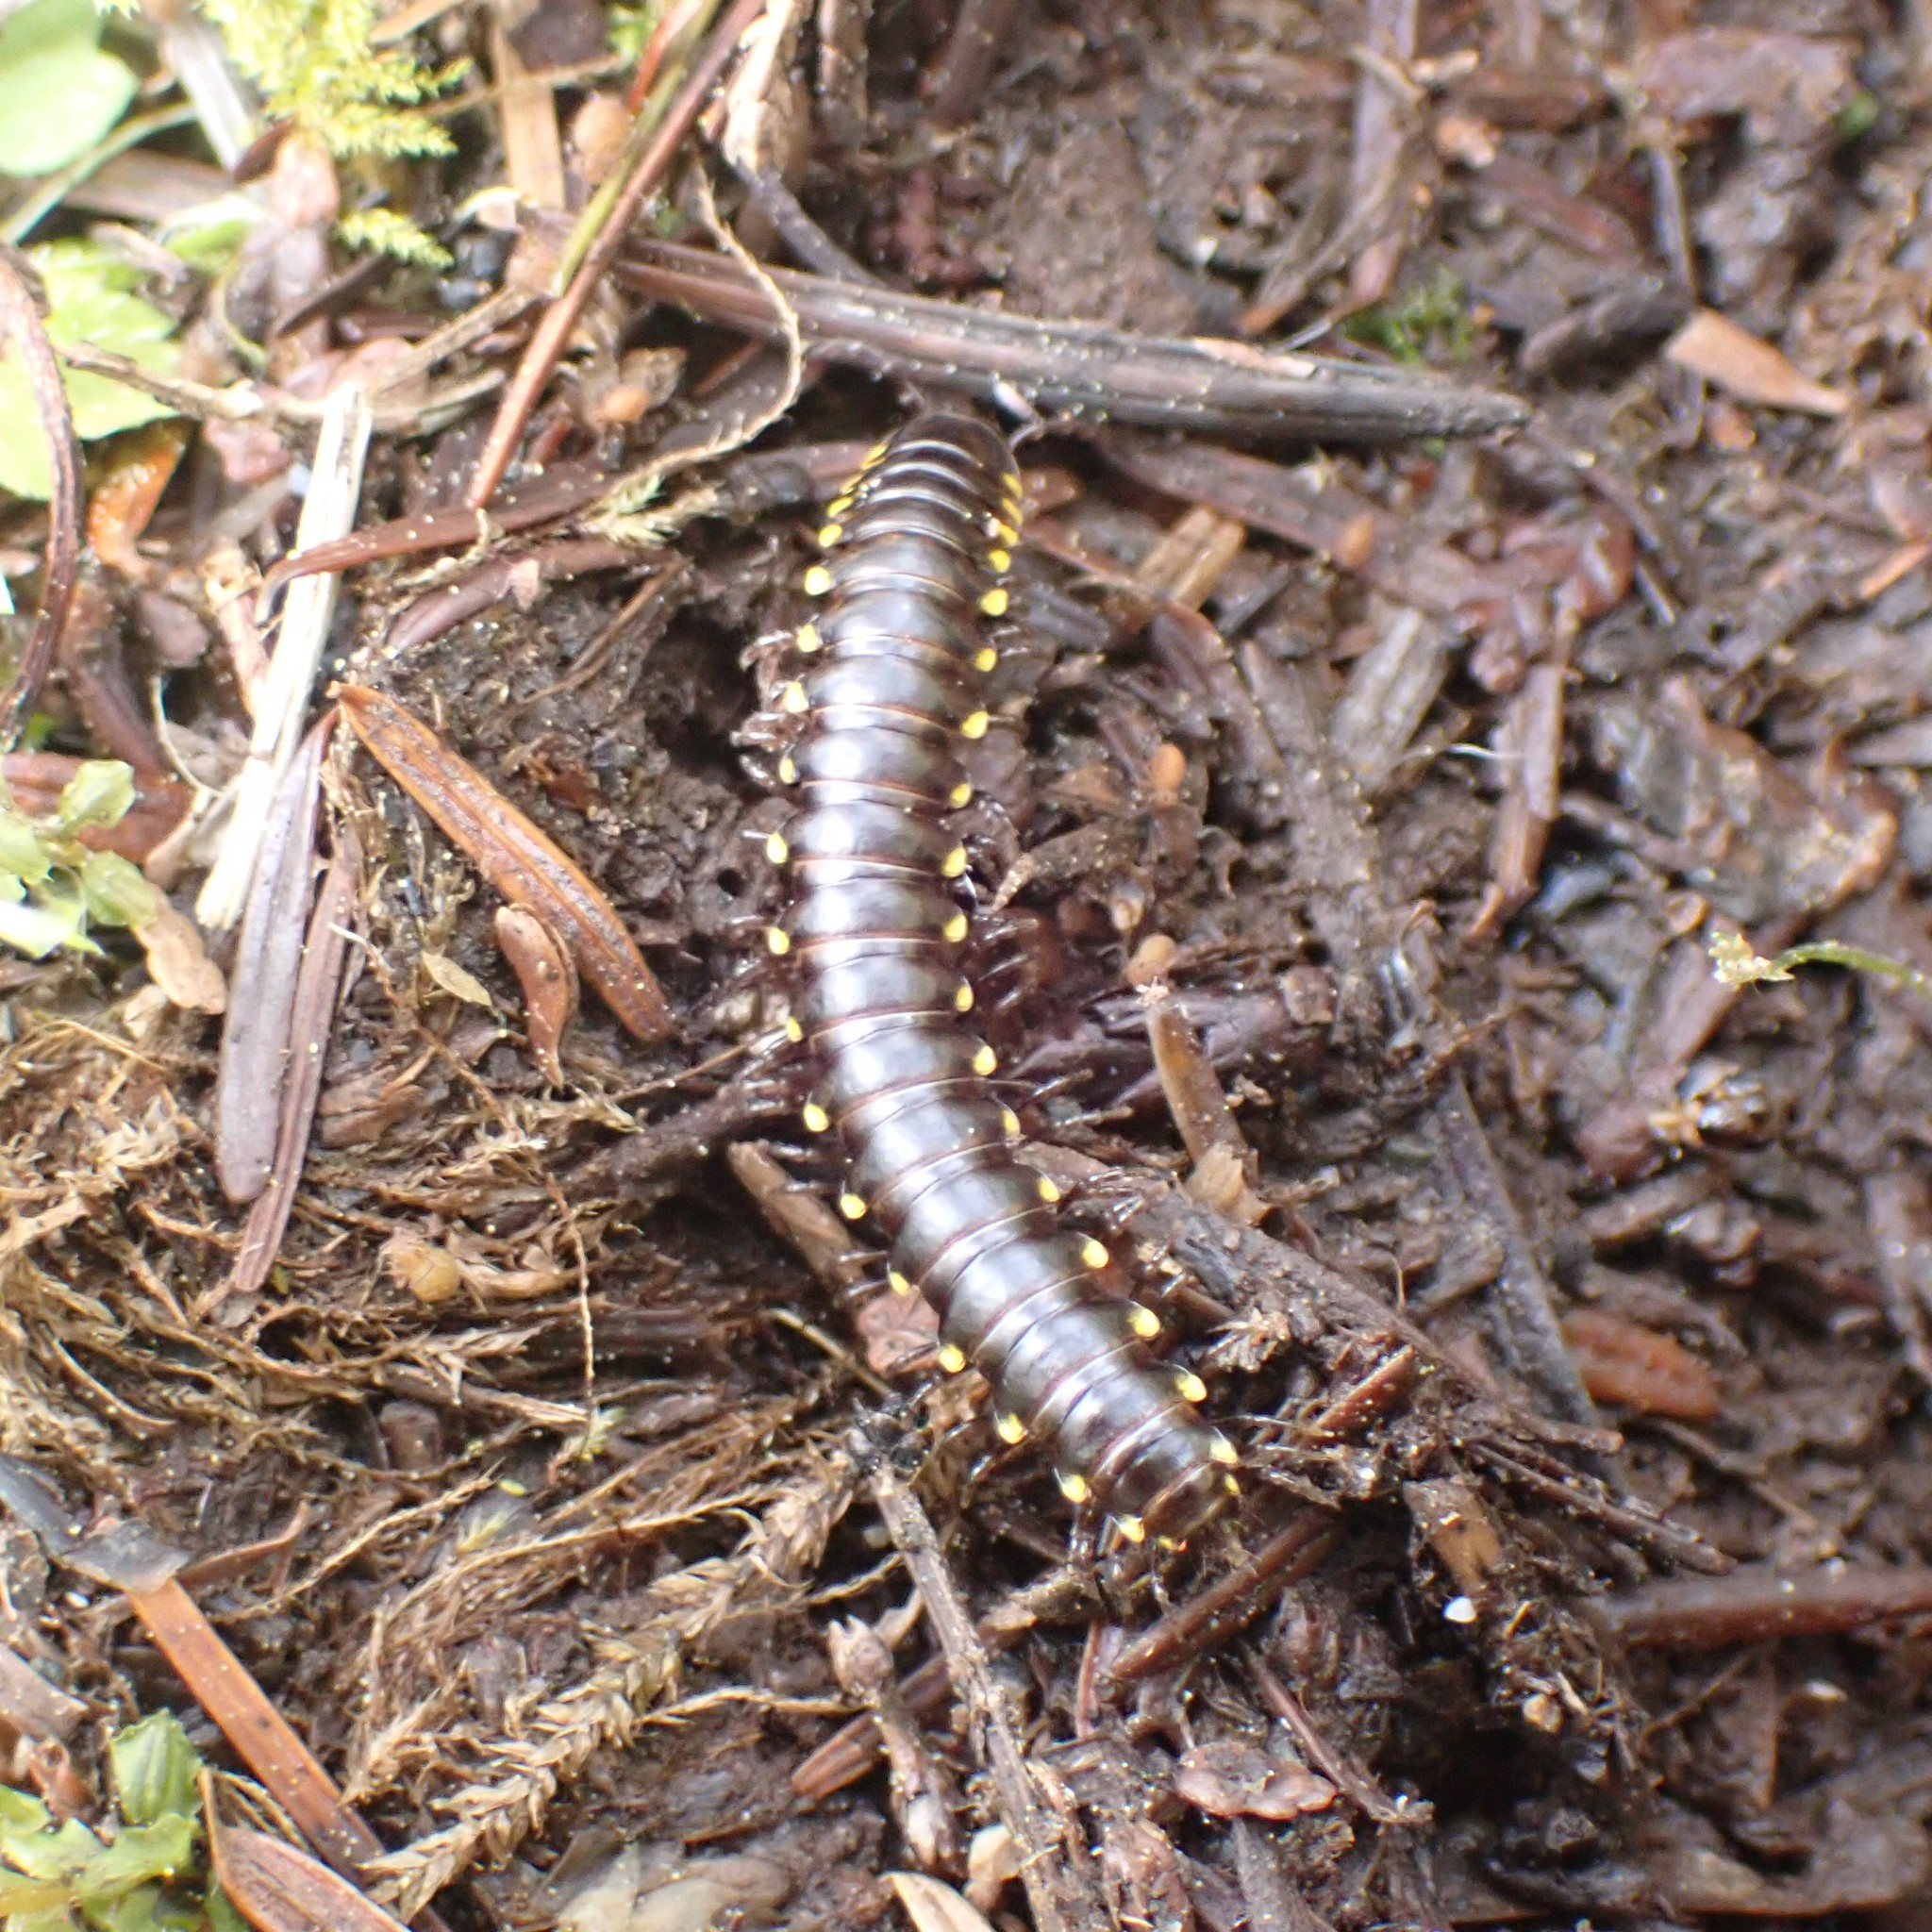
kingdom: Animalia
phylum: Arthropoda
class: Diplopoda
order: Polydesmida
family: Xystodesmidae
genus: Harpaphe
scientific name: Harpaphe haydeniana
